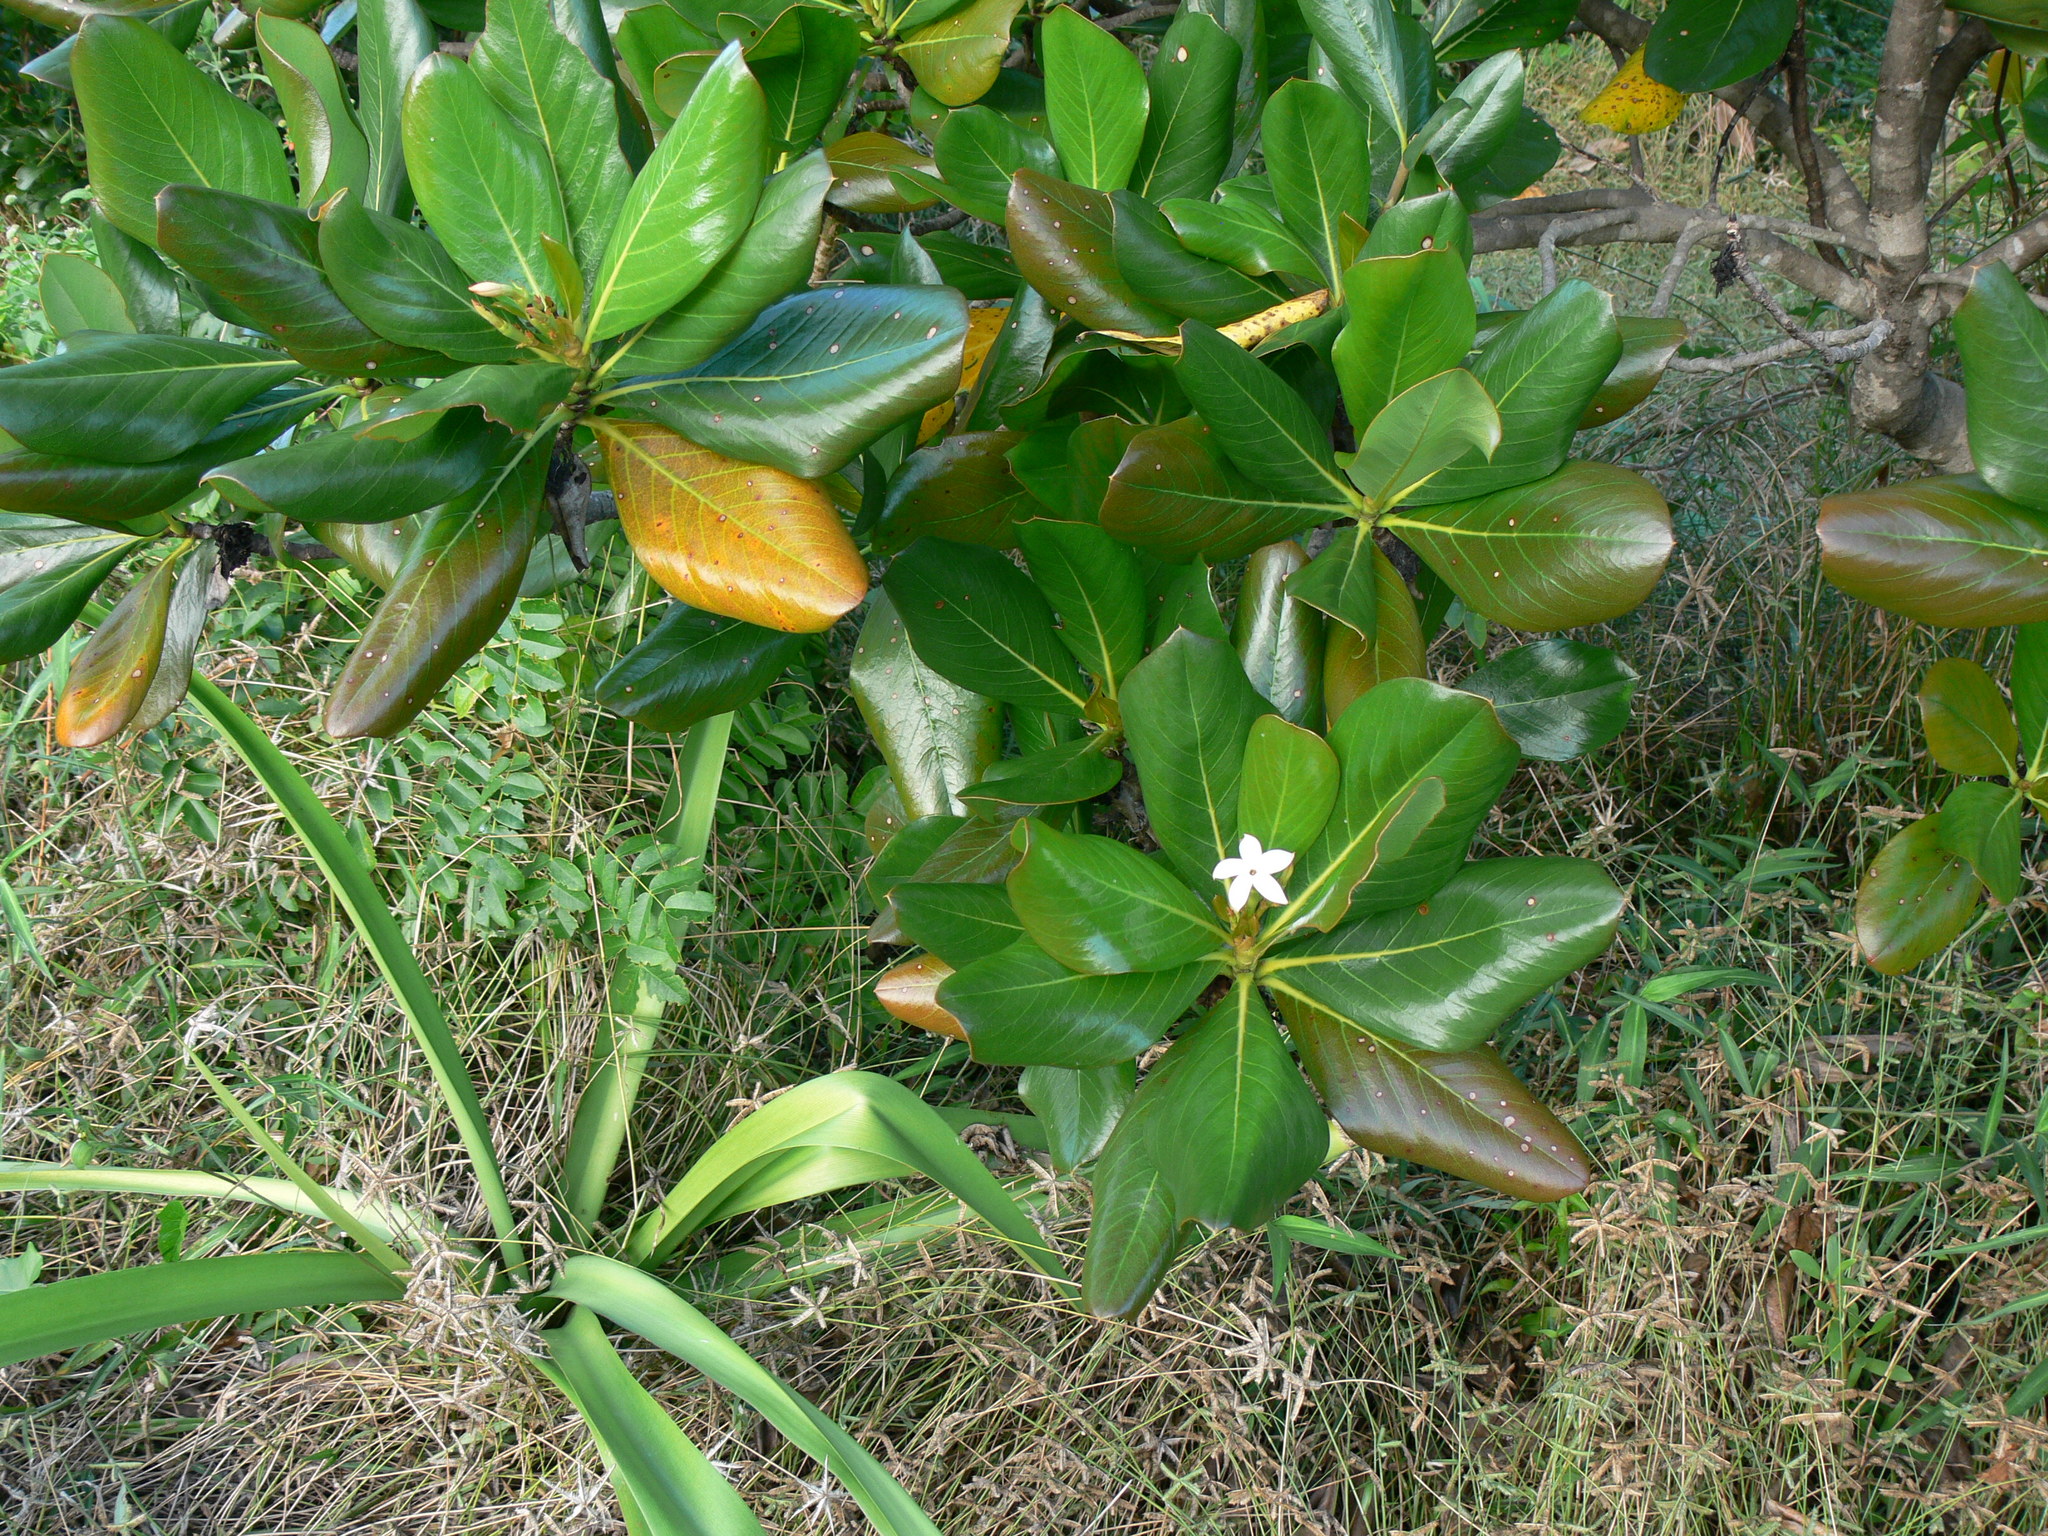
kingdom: Plantae
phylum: Tracheophyta
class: Magnoliopsida
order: Gentianales
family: Rubiaceae
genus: Casasia
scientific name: Casasia clusiifolia
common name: Seven-year apple
